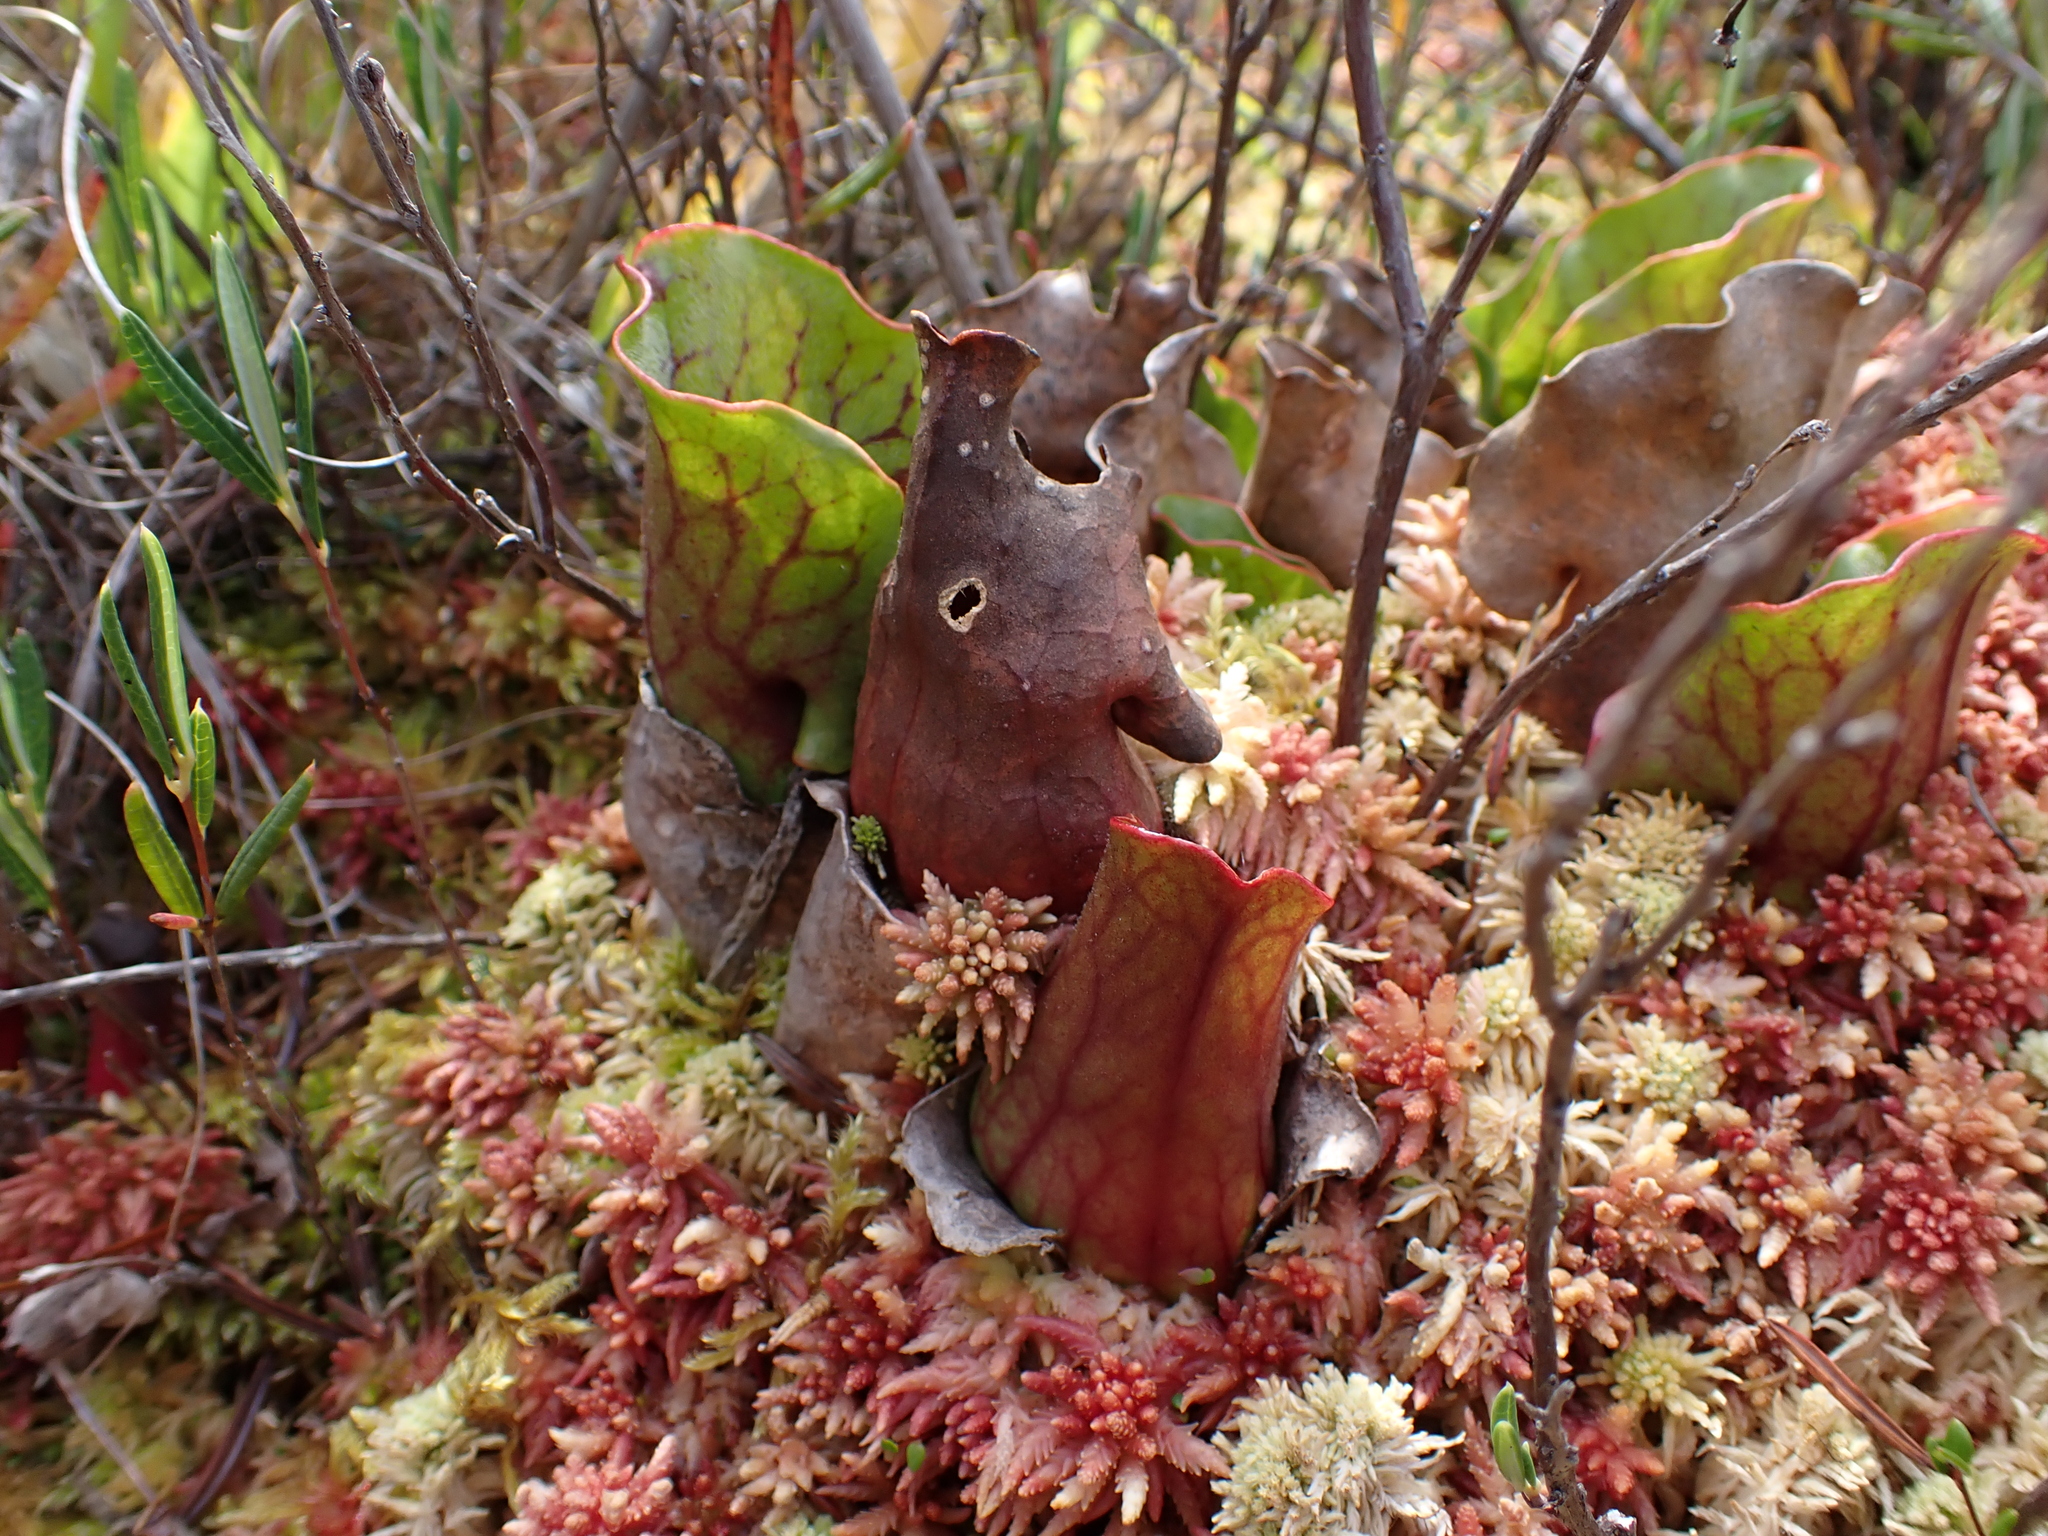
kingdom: Plantae
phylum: Tracheophyta
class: Magnoliopsida
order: Ericales
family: Sarraceniaceae
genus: Sarracenia
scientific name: Sarracenia purpurea
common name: Pitcherplant
